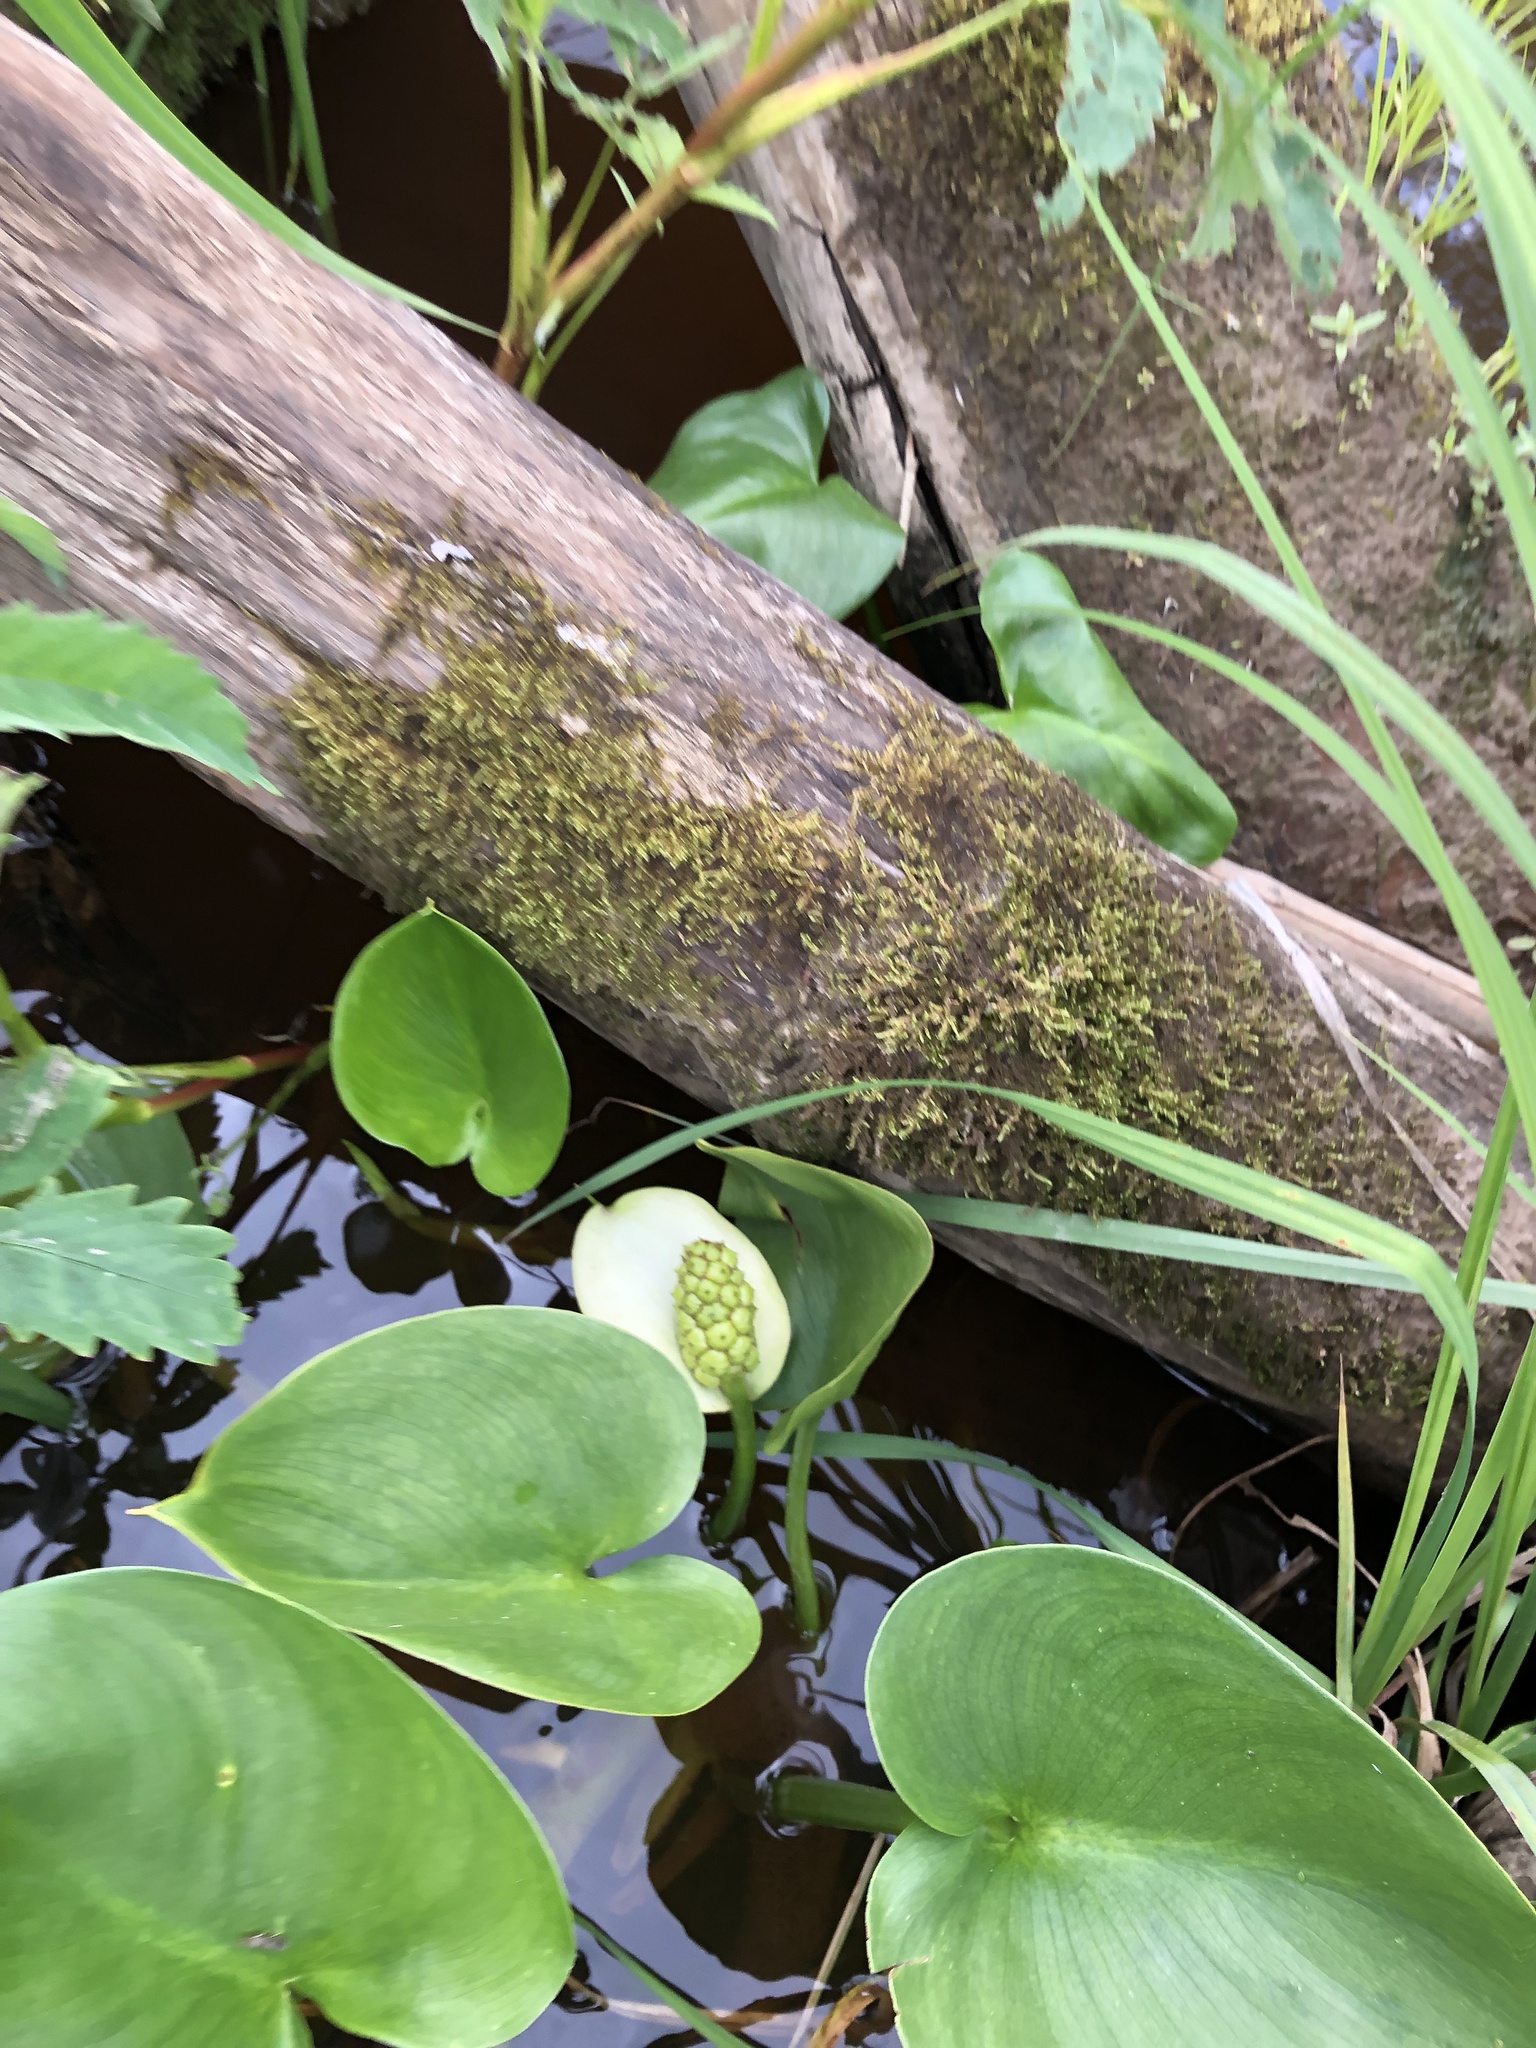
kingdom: Plantae
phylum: Tracheophyta
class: Liliopsida
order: Alismatales
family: Araceae
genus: Calla
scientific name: Calla palustris
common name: Bog arum
